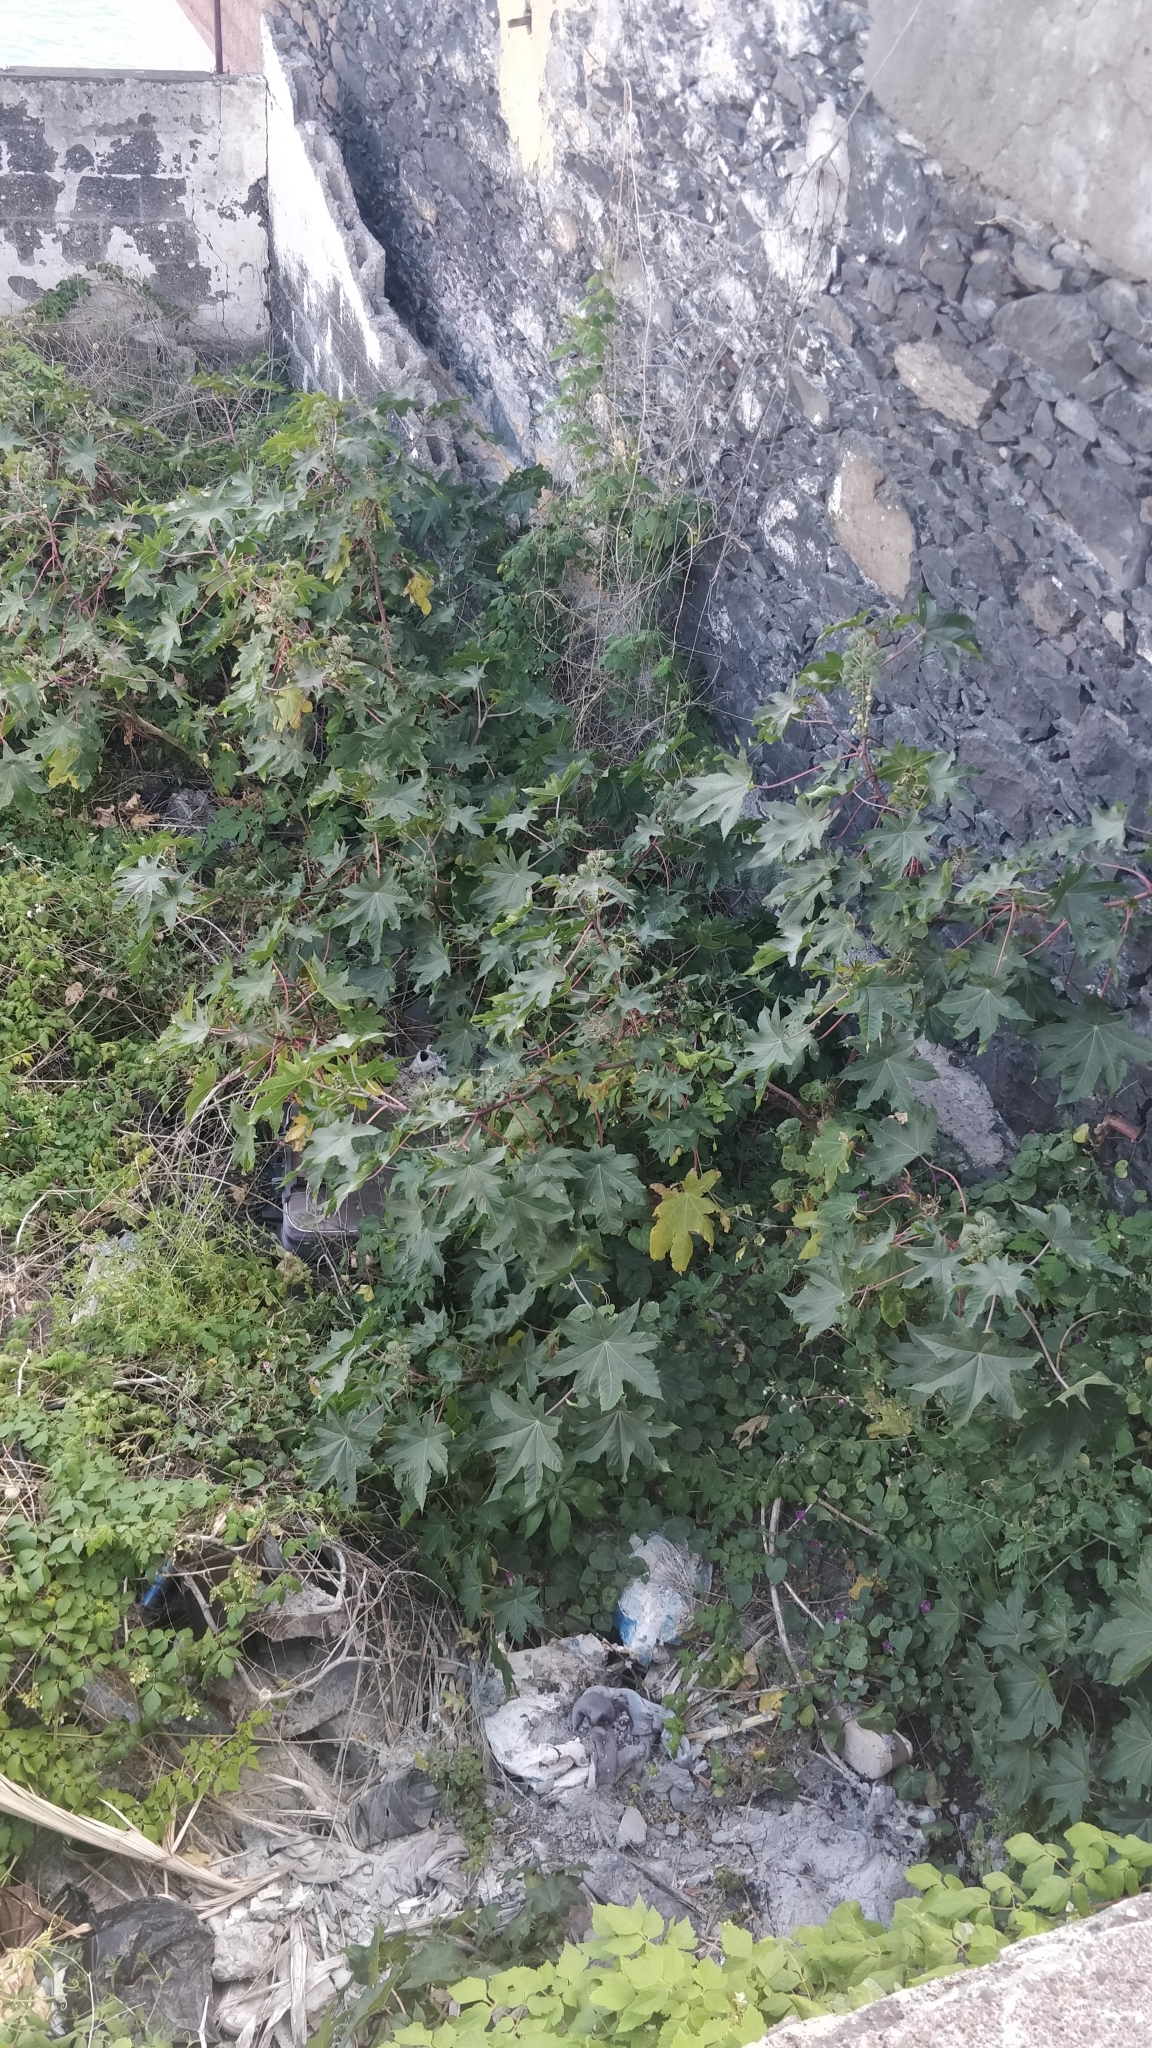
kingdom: Plantae
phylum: Tracheophyta
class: Magnoliopsida
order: Malpighiales
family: Euphorbiaceae
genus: Ricinus
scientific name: Ricinus communis
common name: Castor-oil-plant
